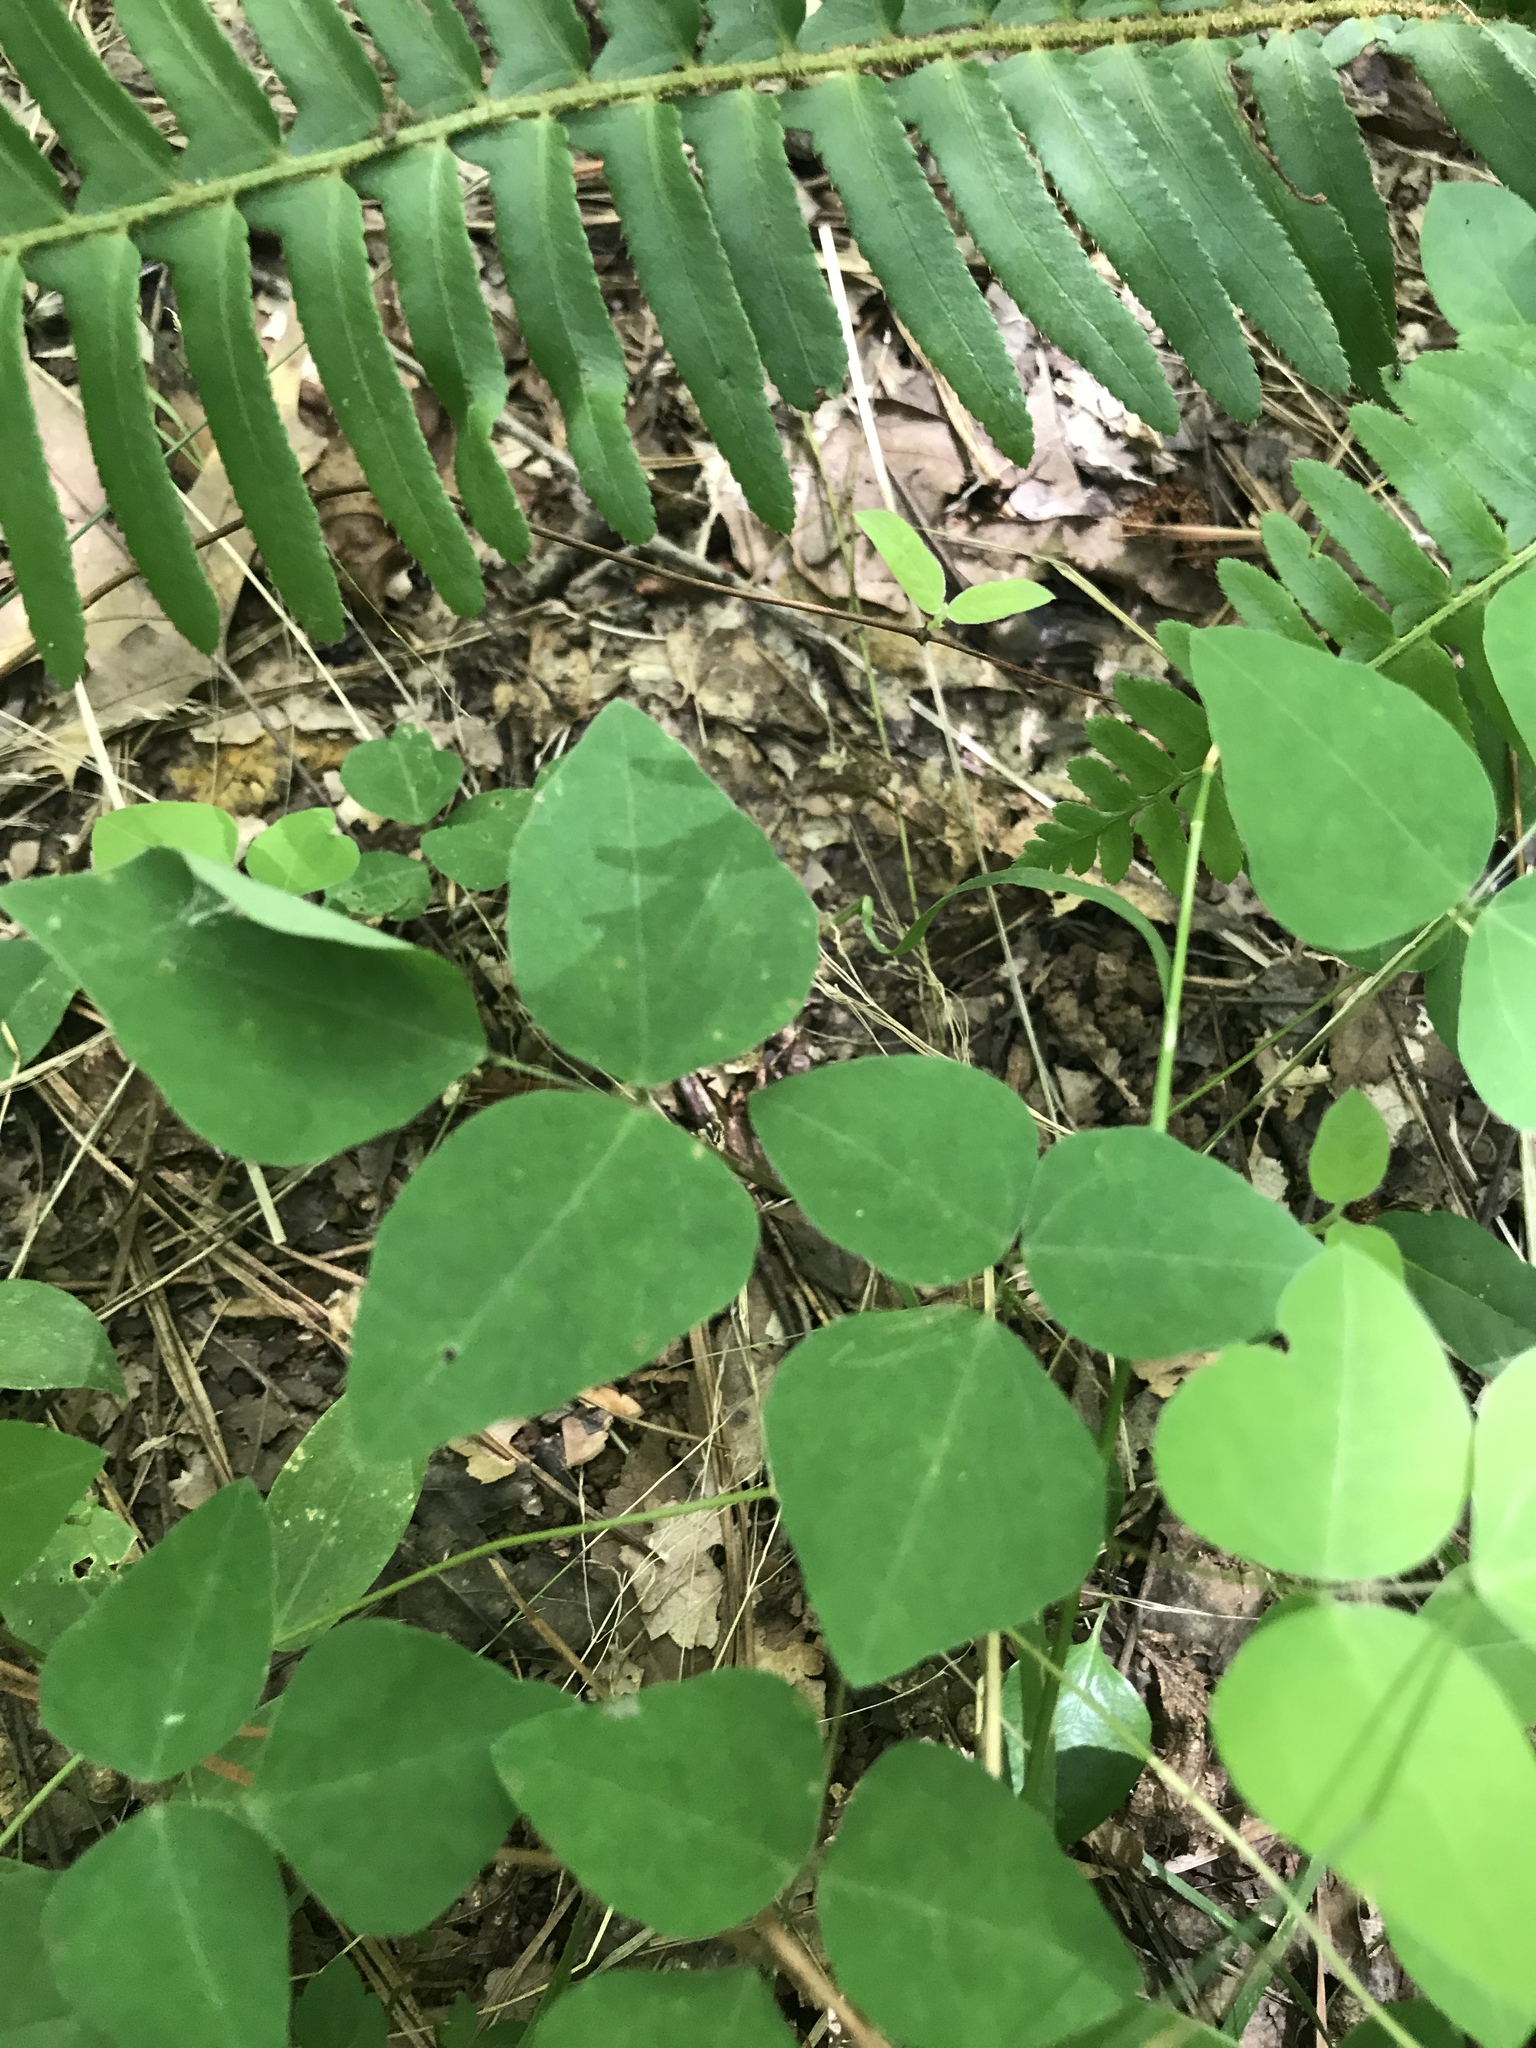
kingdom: Plantae
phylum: Tracheophyta
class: Magnoliopsida
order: Fabales
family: Fabaceae
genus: Amphicarpaea
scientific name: Amphicarpaea bracteata
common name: American hog peanut
